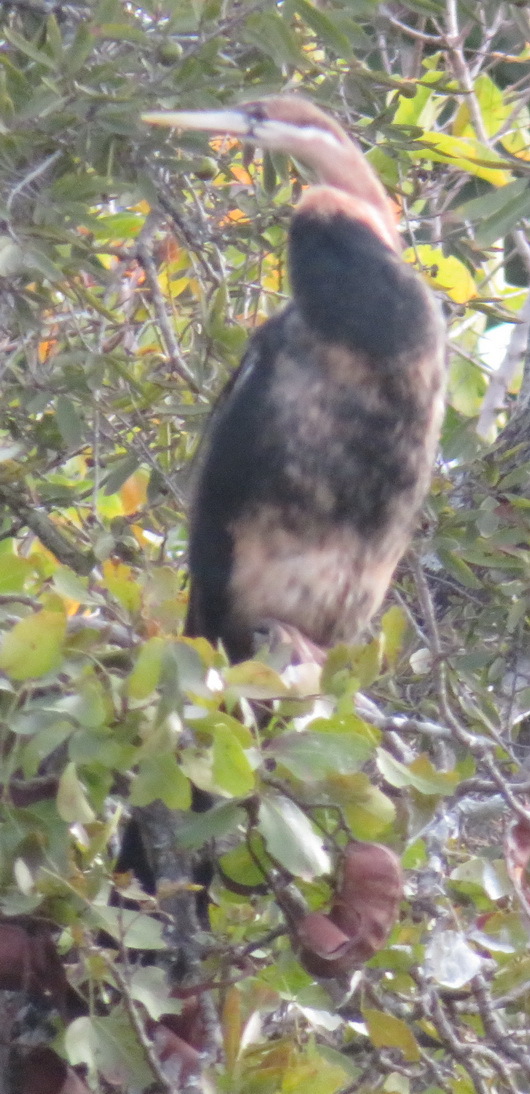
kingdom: Animalia
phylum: Chordata
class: Aves
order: Suliformes
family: Anhingidae
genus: Anhinga
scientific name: Anhinga rufa
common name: African darter
